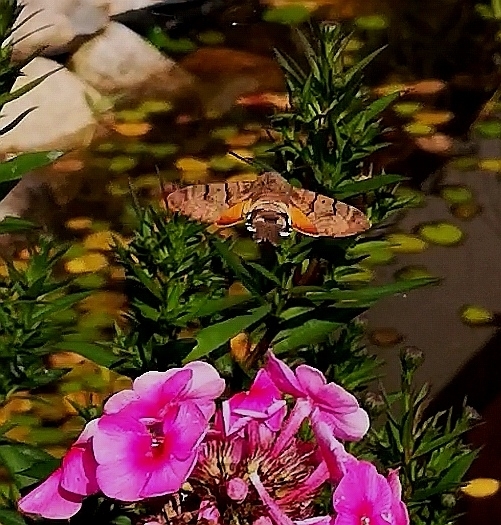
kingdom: Animalia
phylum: Arthropoda
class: Insecta
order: Lepidoptera
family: Sphingidae
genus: Macroglossum
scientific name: Macroglossum stellatarum
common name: Humming-bird hawk-moth
